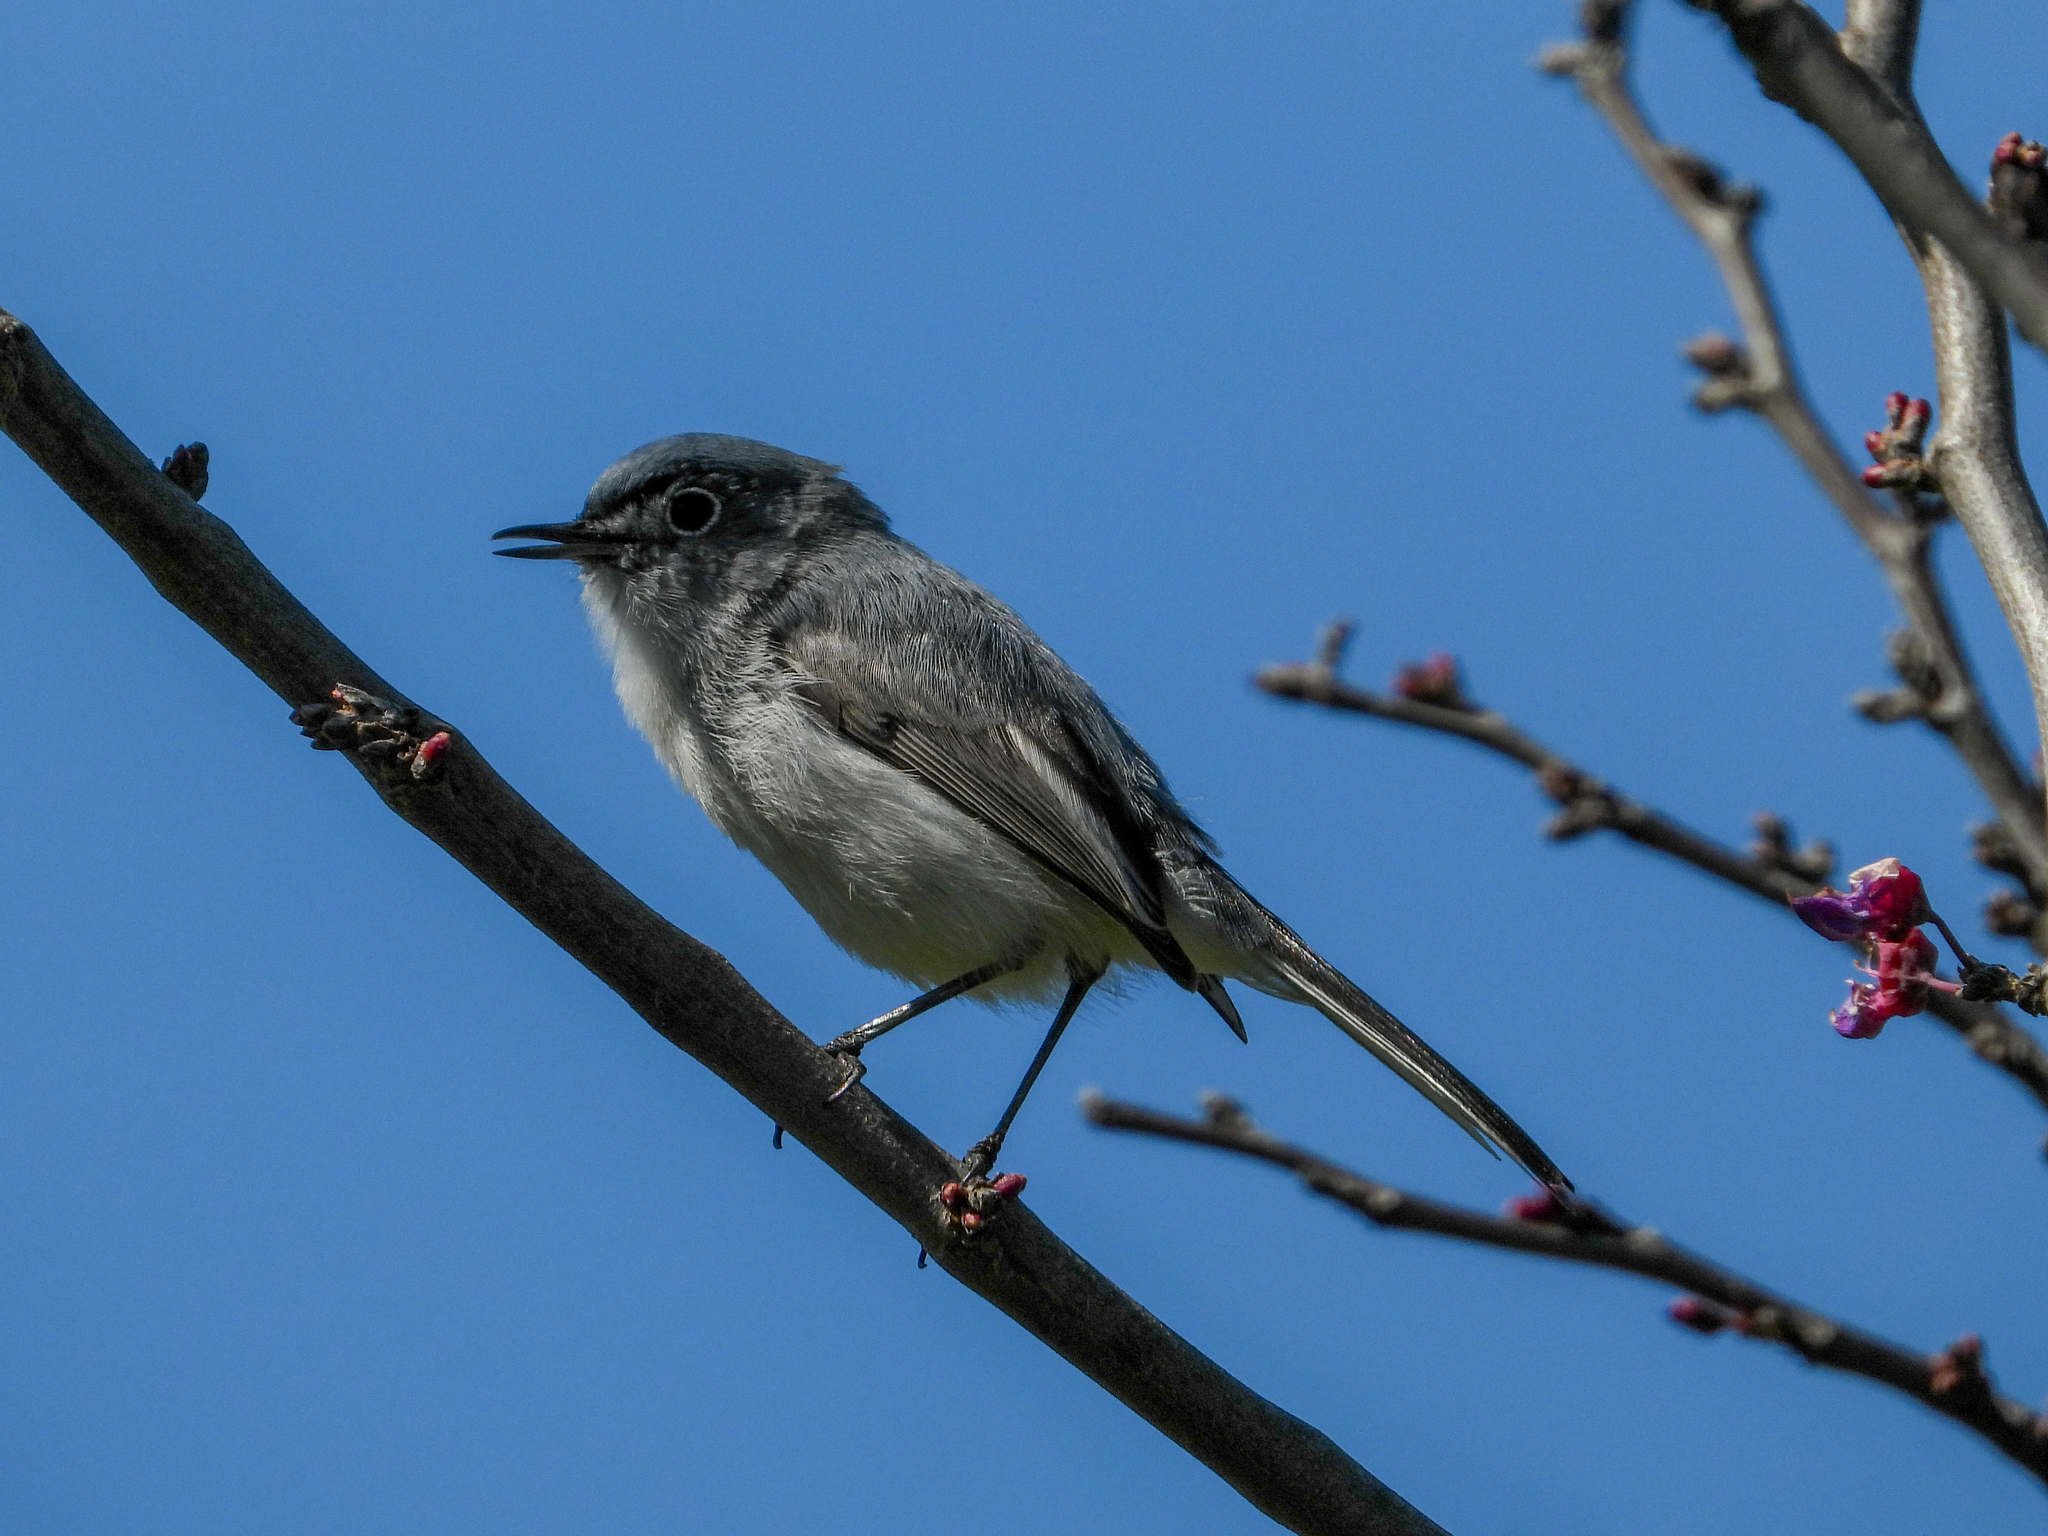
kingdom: Animalia
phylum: Chordata
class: Aves
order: Passeriformes
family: Polioptilidae
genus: Polioptila
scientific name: Polioptila caerulea
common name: Blue-gray gnatcatcher
